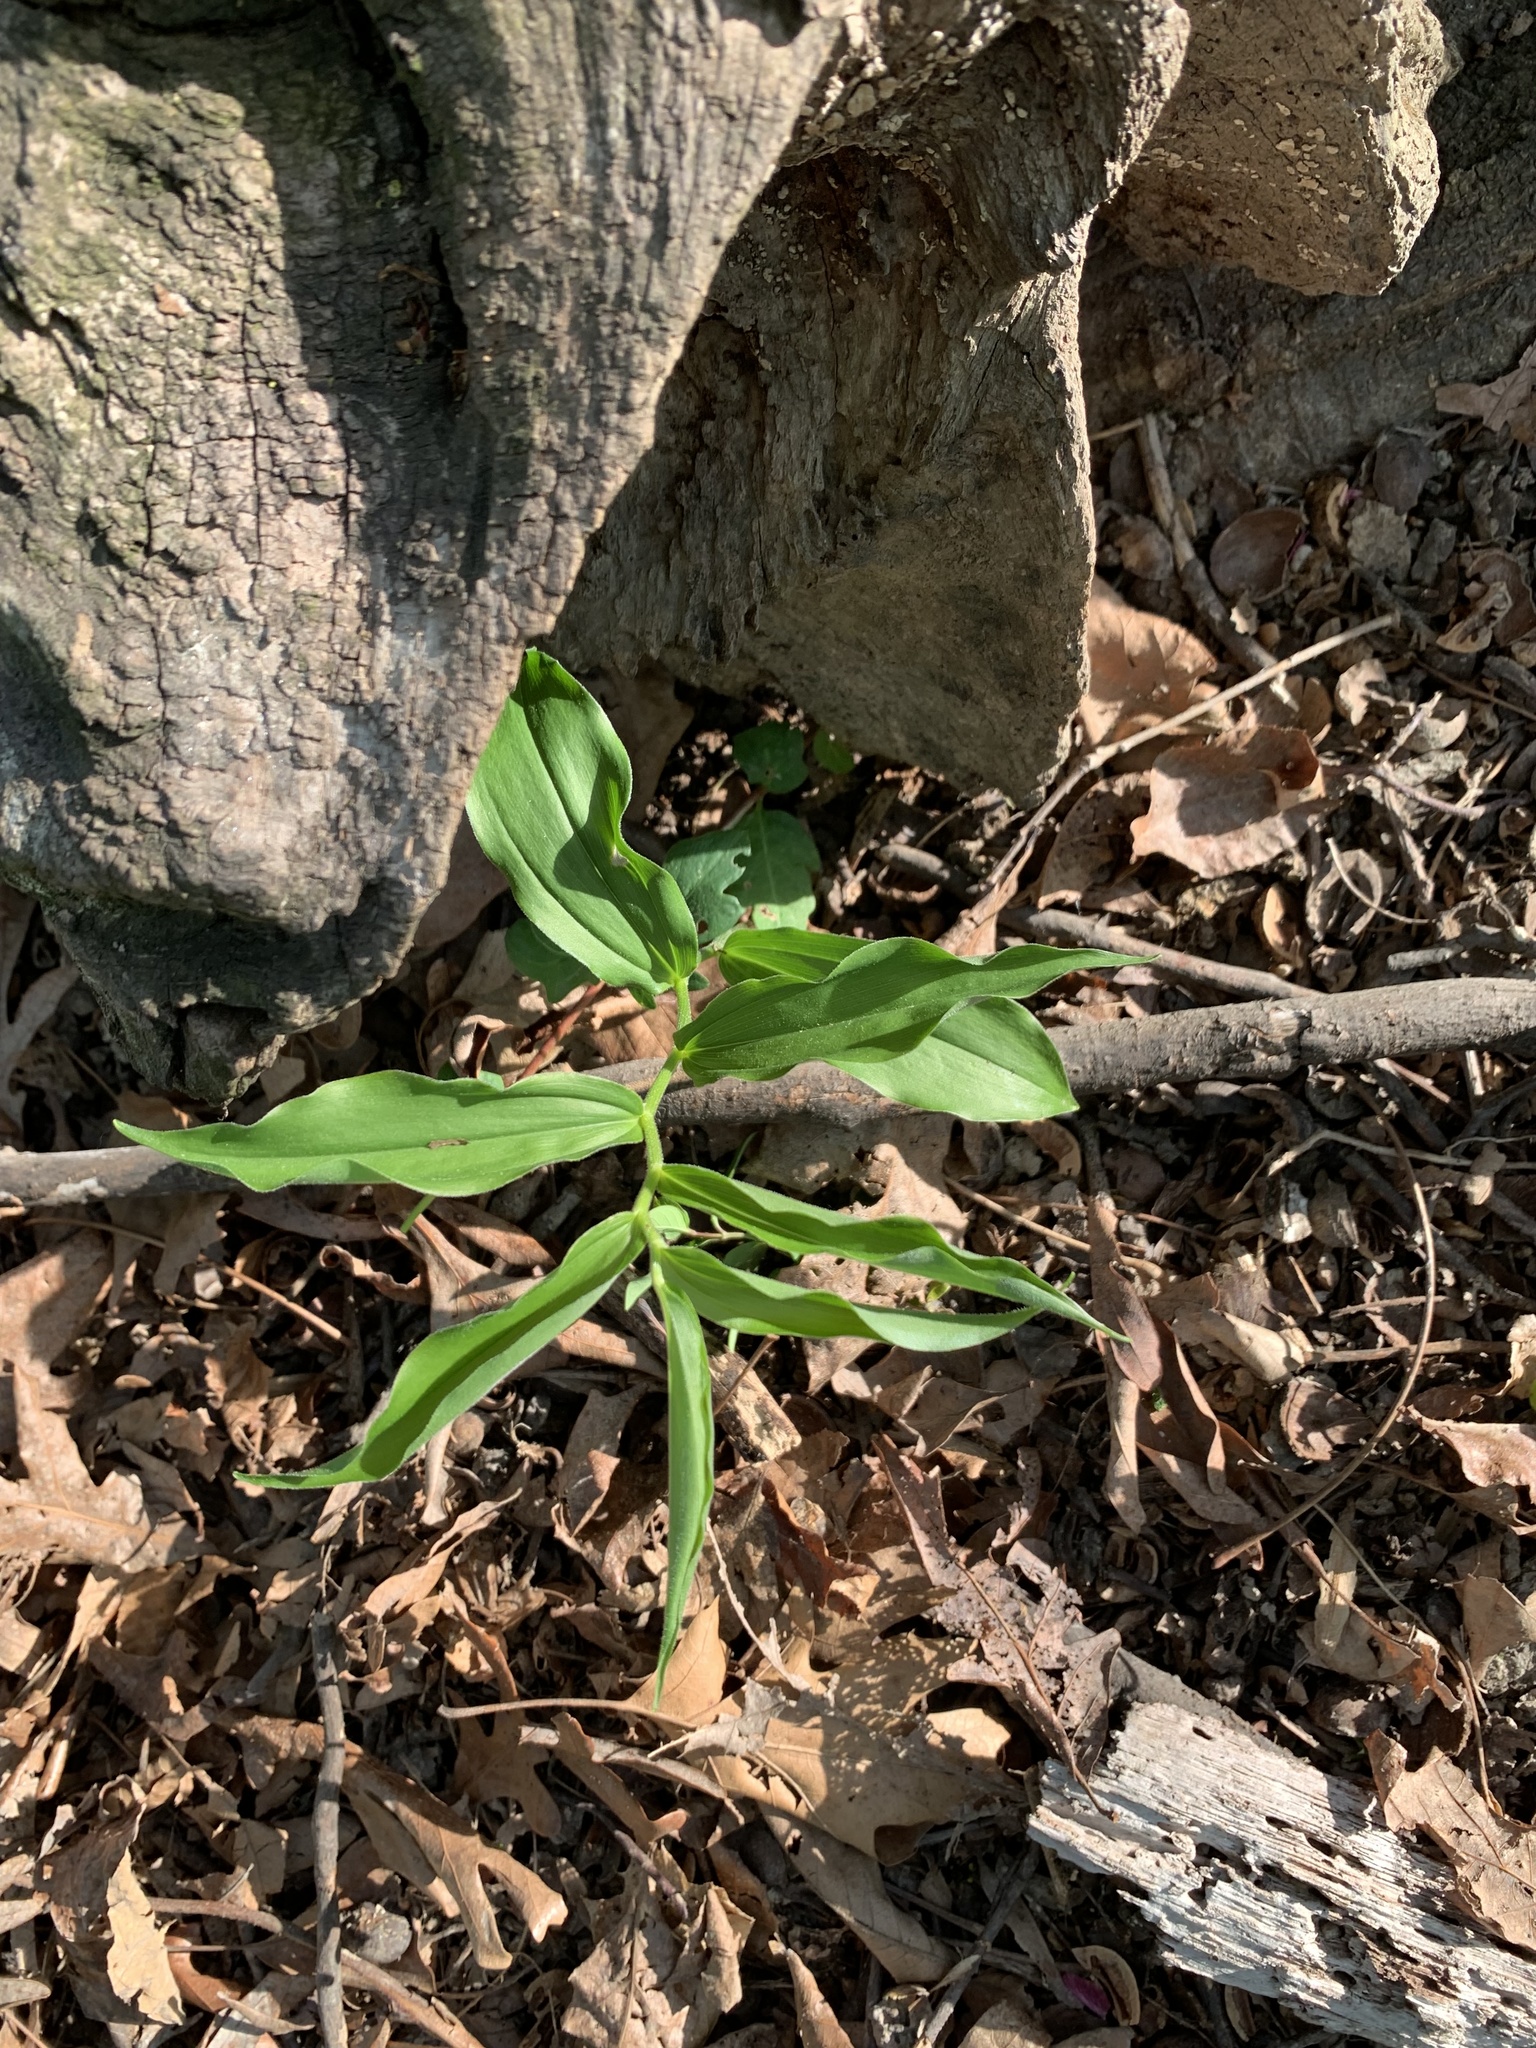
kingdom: Plantae
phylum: Tracheophyta
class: Liliopsida
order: Asparagales
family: Asparagaceae
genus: Maianthemum
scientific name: Maianthemum racemosum
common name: False spikenard
